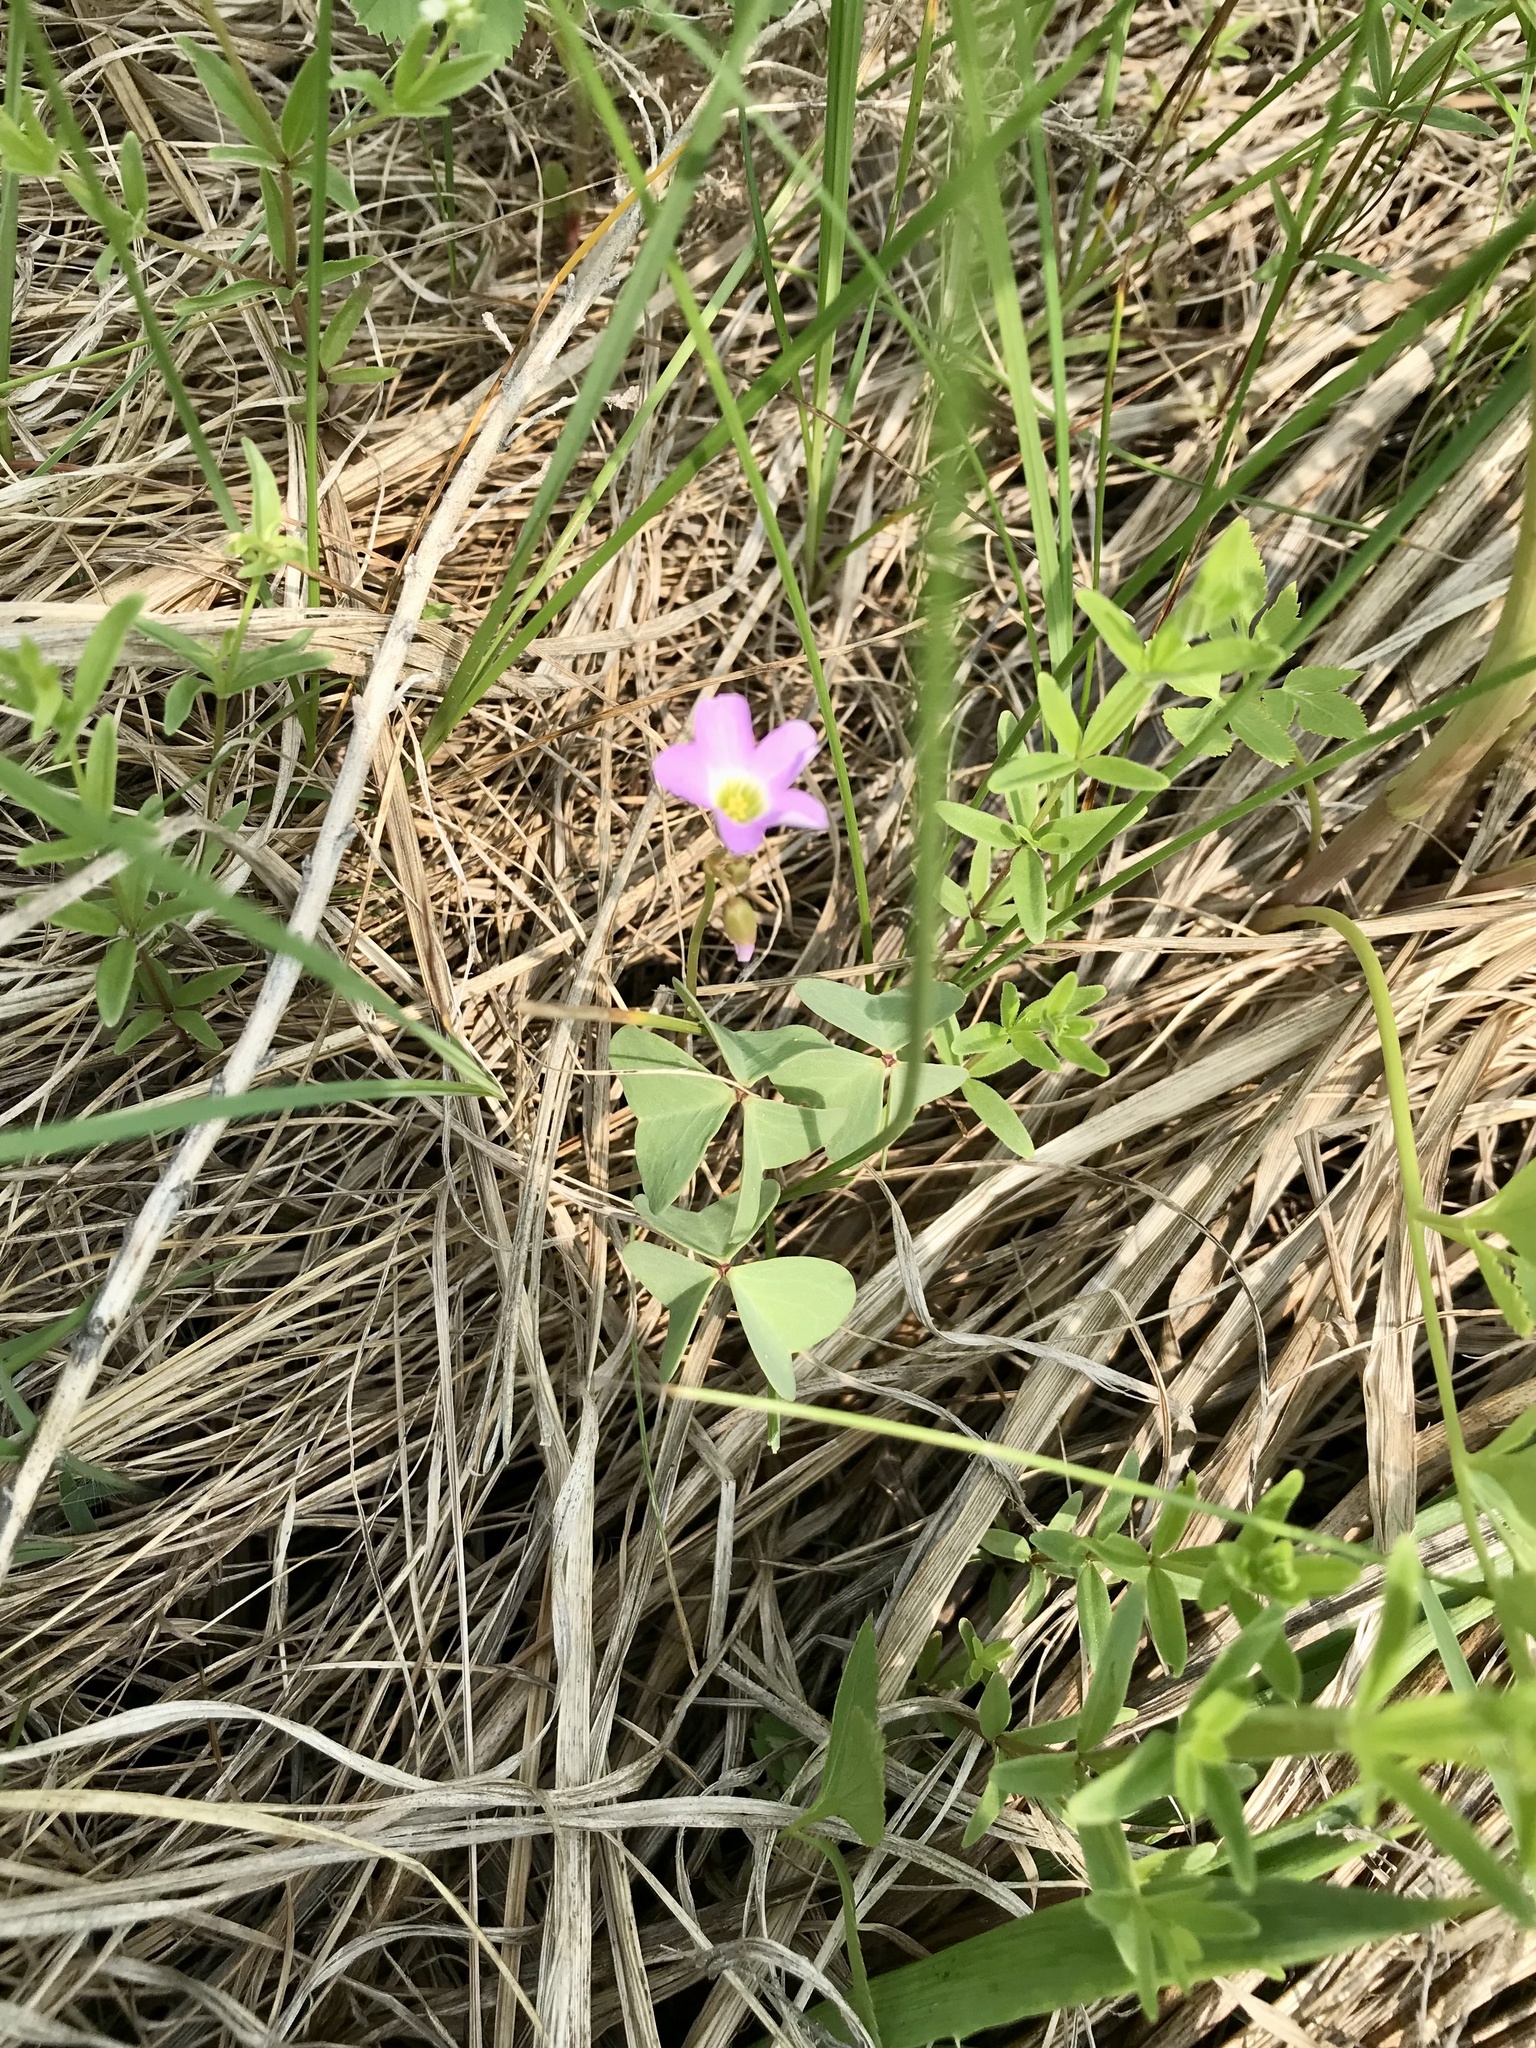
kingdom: Plantae
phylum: Tracheophyta
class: Magnoliopsida
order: Oxalidales
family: Oxalidaceae
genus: Oxalis
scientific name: Oxalis violacea
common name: Violet wood-sorrel
